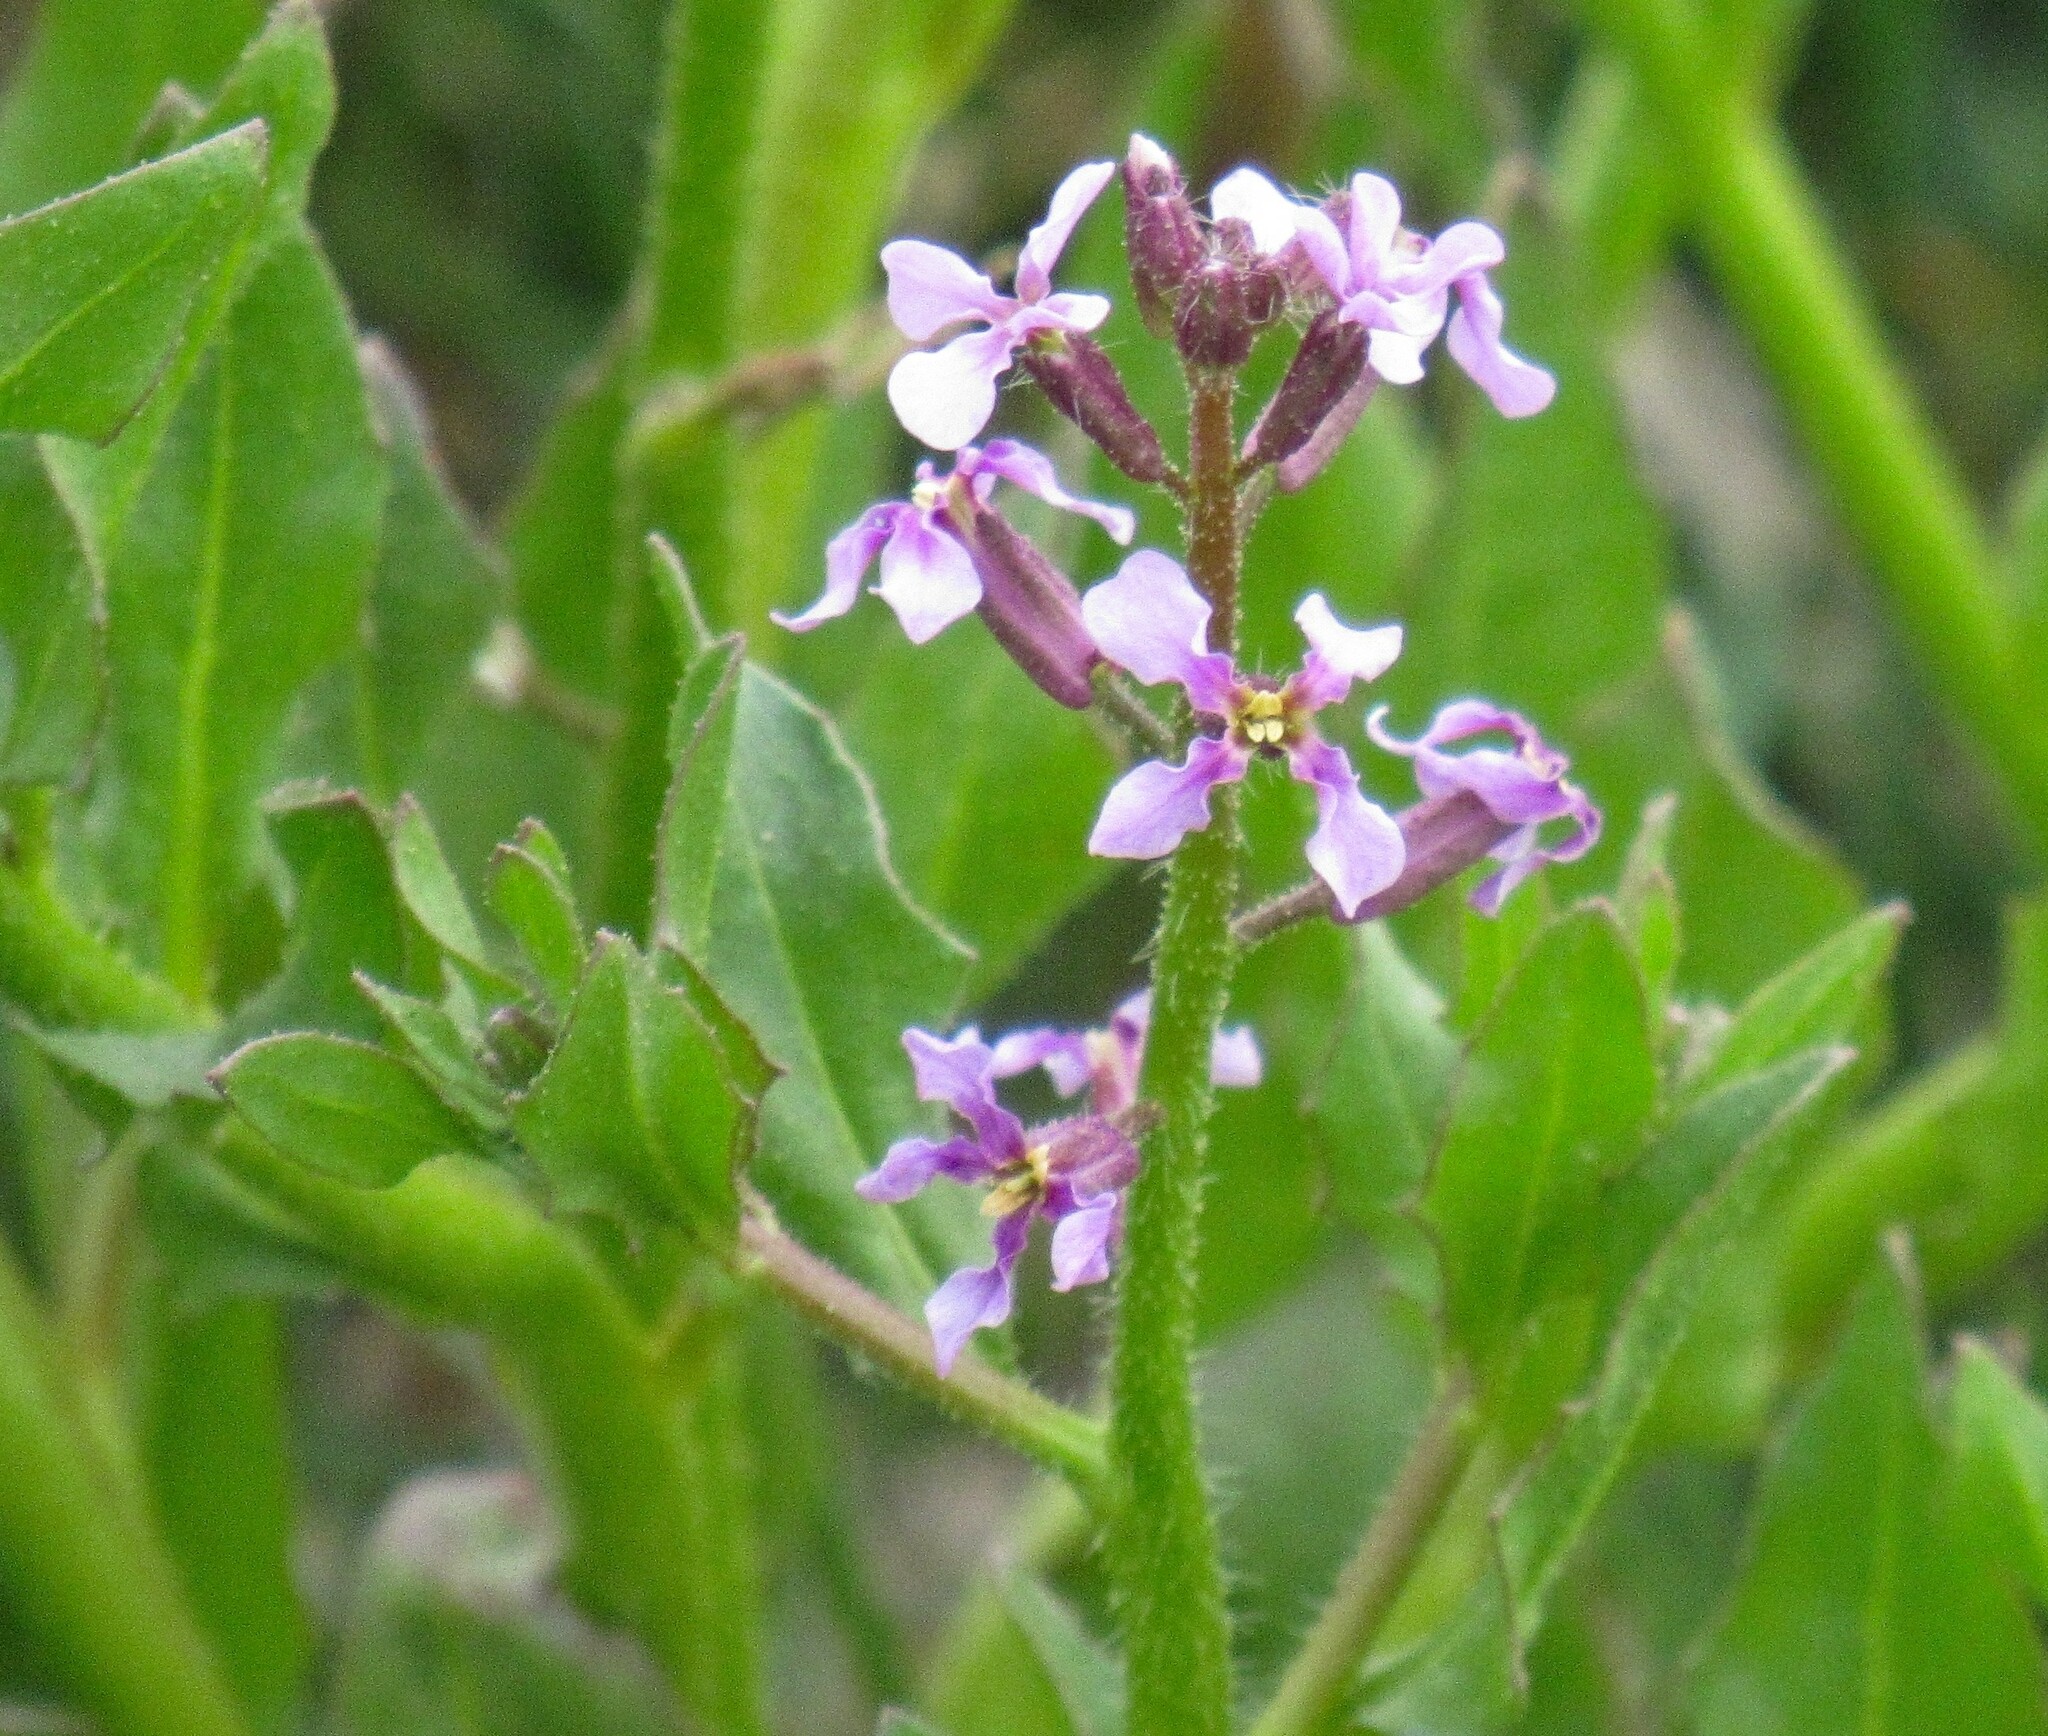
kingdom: Plantae
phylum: Tracheophyta
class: Magnoliopsida
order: Brassicales
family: Brassicaceae
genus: Chorispora
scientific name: Chorispora tenella
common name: Crossflower
